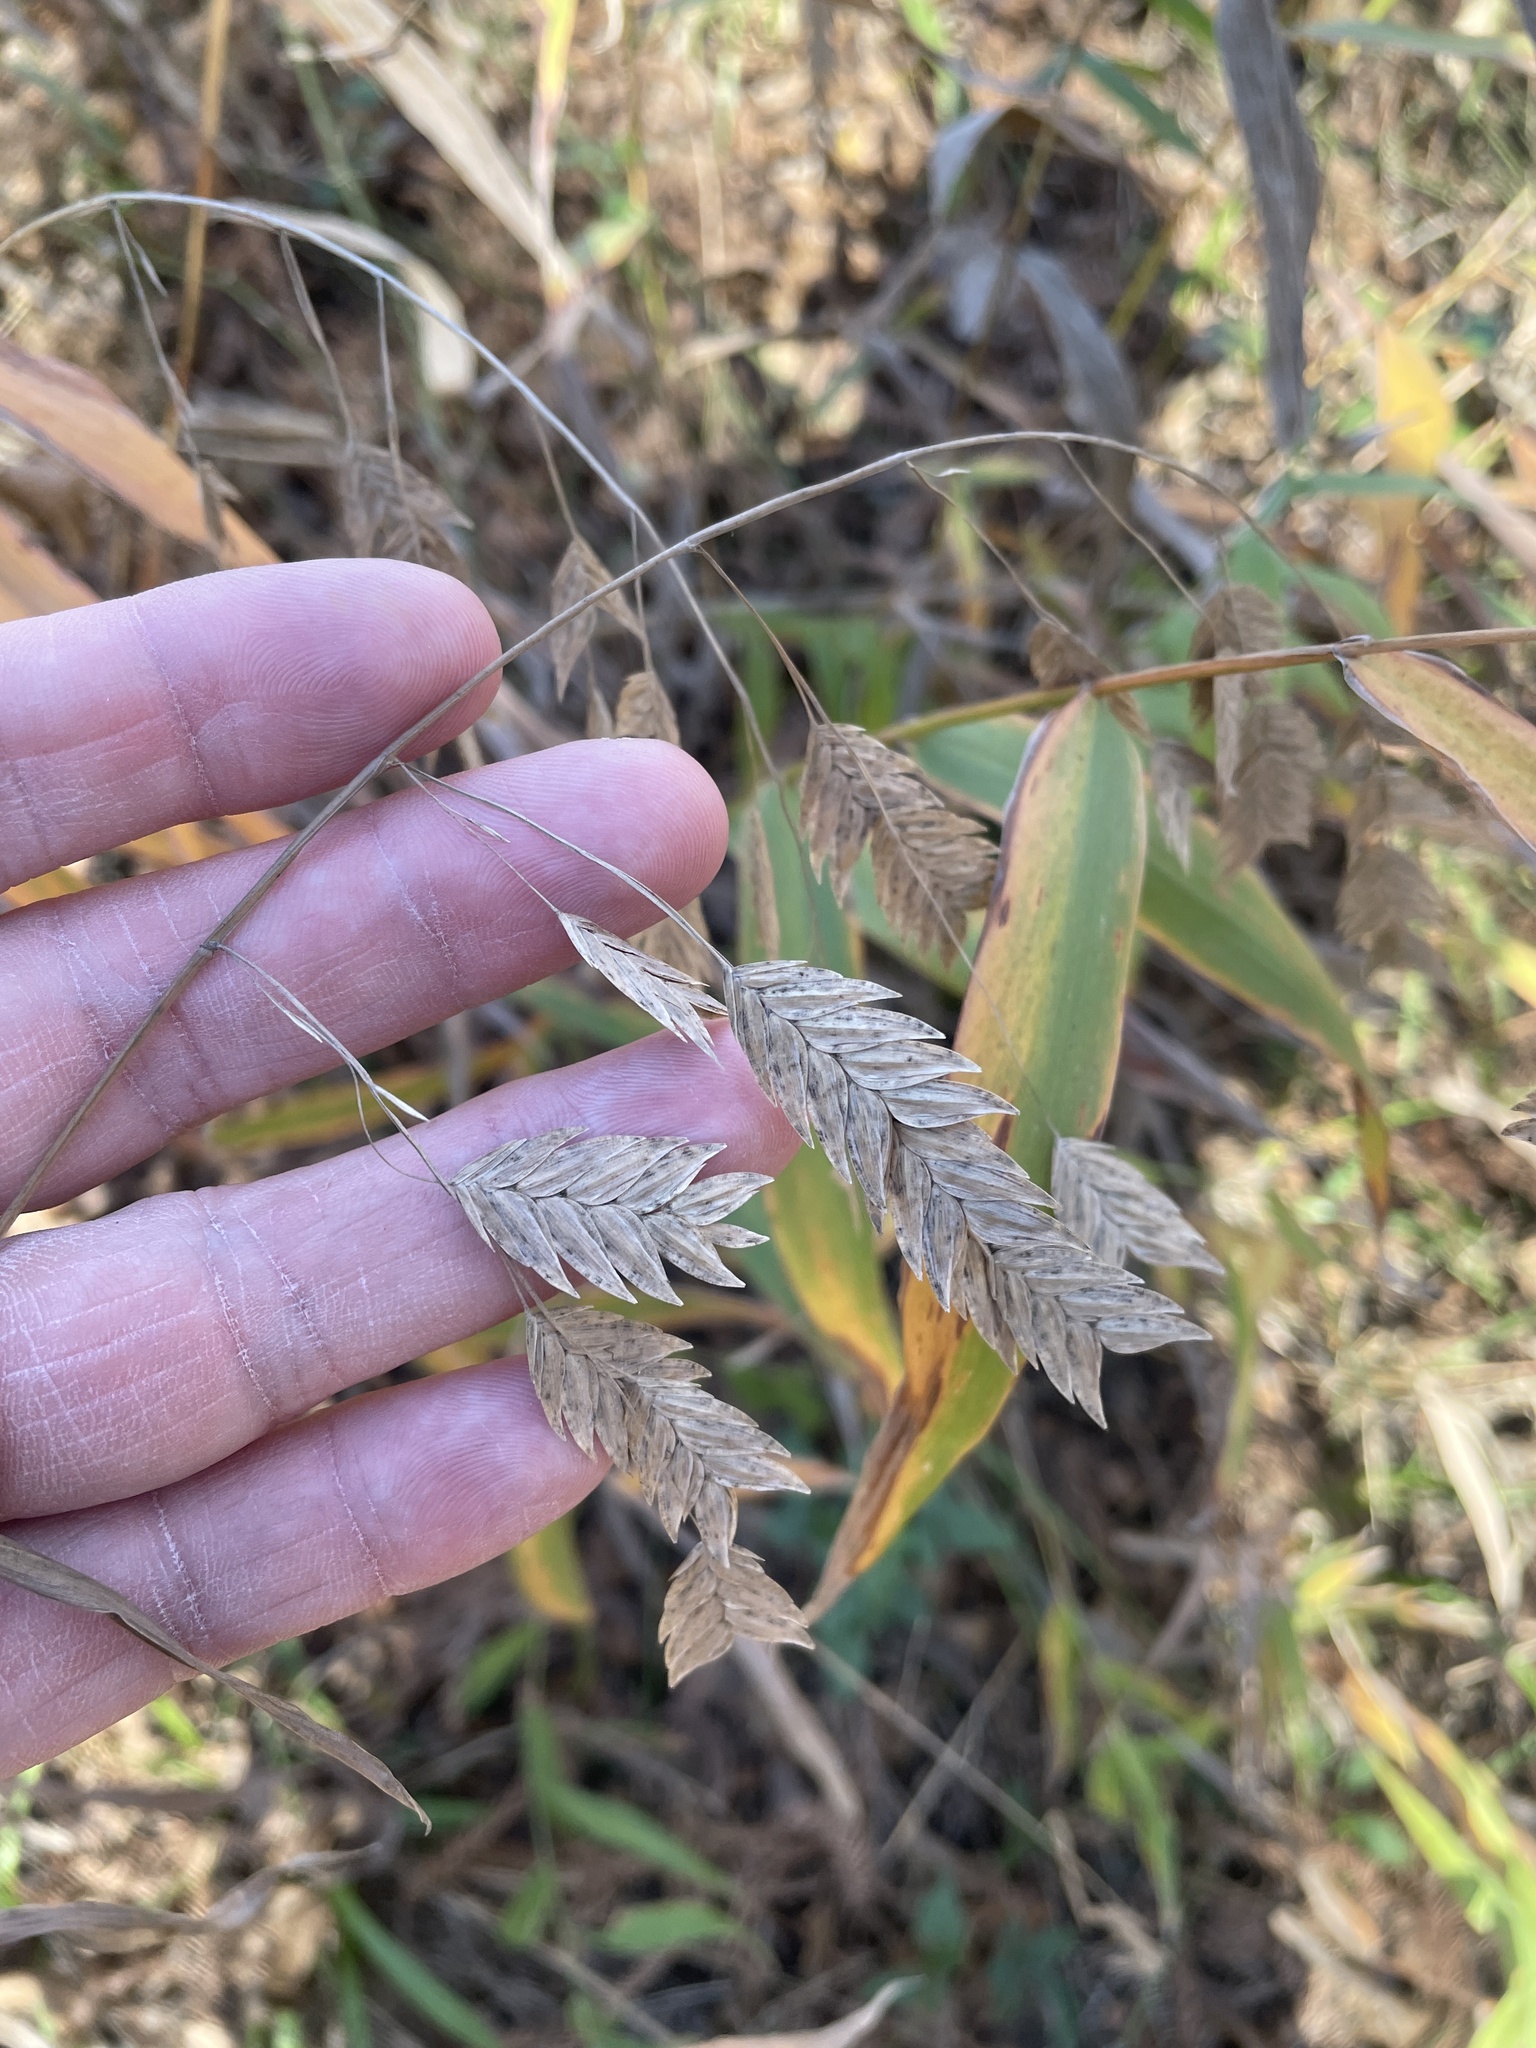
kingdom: Plantae
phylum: Tracheophyta
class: Liliopsida
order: Poales
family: Poaceae
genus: Chasmanthium
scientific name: Chasmanthium latifolium
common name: Broad-leaved chasmanthium
